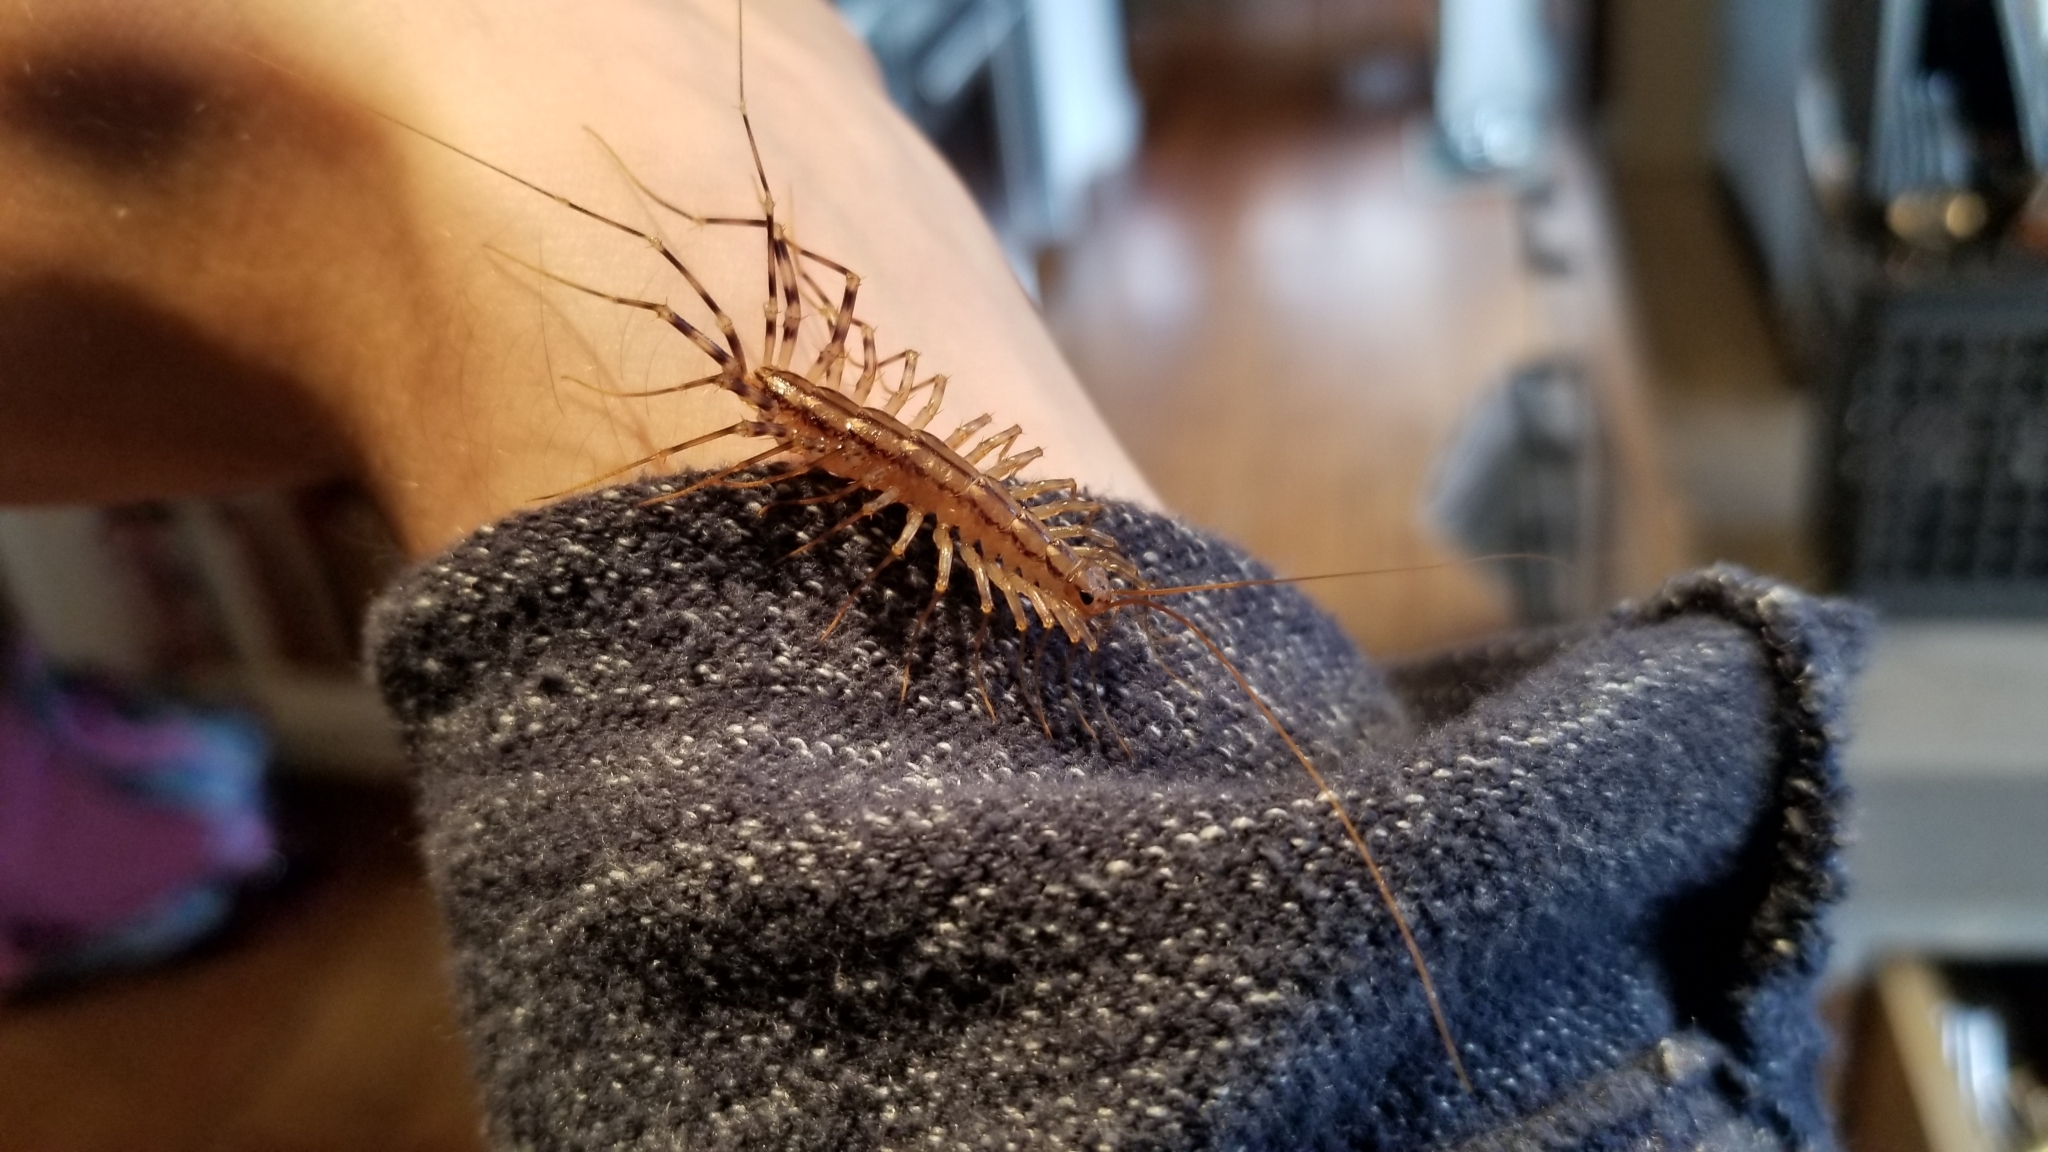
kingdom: Animalia
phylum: Arthropoda
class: Chilopoda
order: Scutigeromorpha
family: Scutigeridae
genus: Scutigera
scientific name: Scutigera coleoptrata
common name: House centipede
